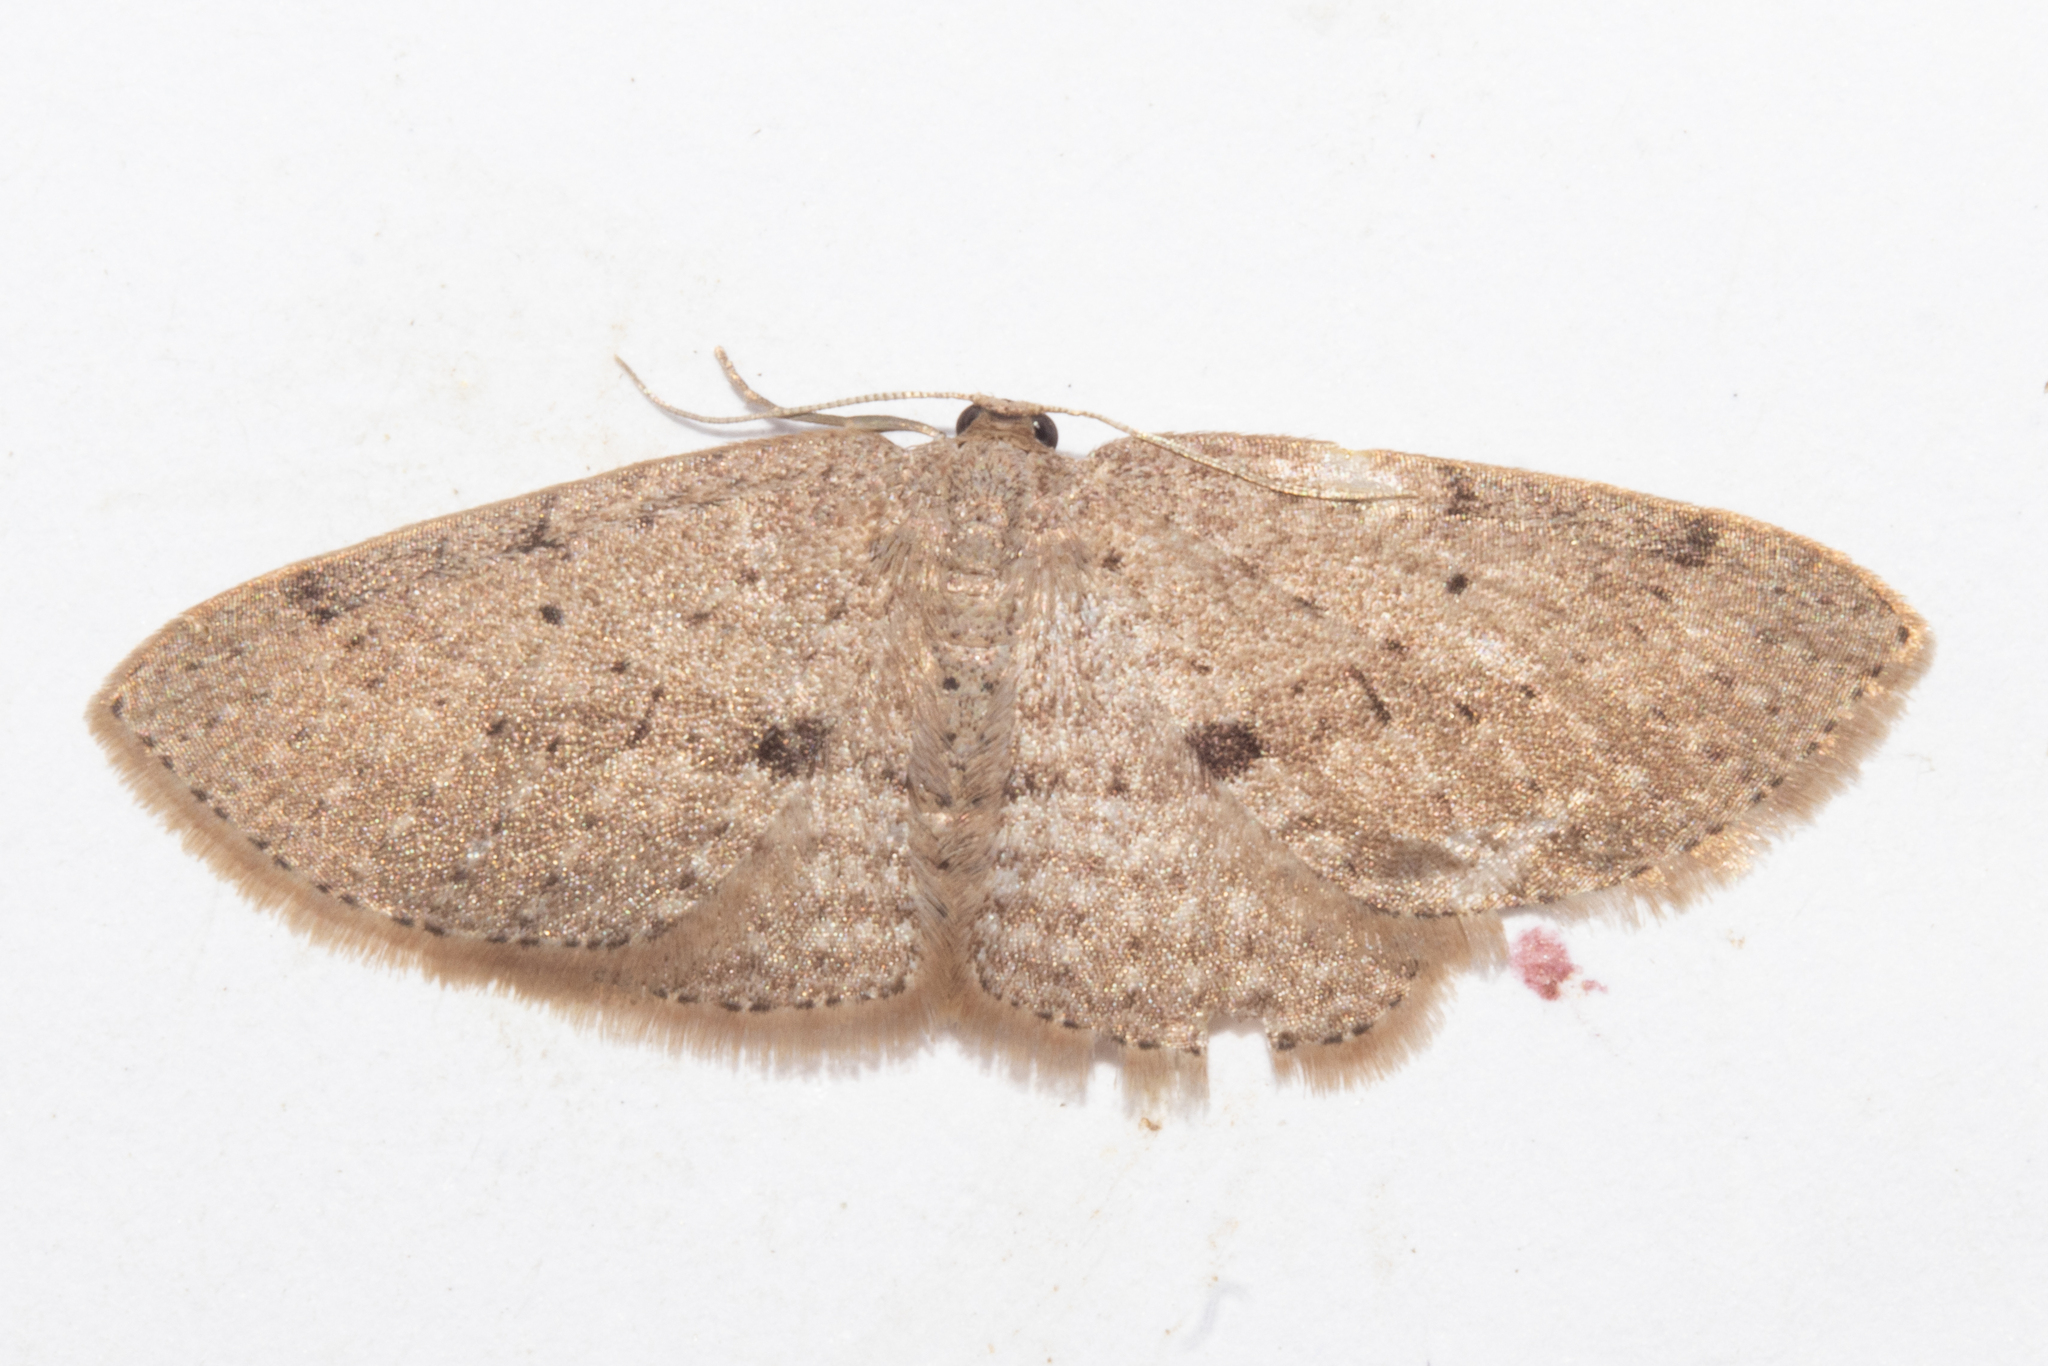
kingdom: Animalia
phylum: Arthropoda
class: Insecta
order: Lepidoptera
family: Geometridae
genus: Poecilasthena
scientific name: Poecilasthena schistaria
